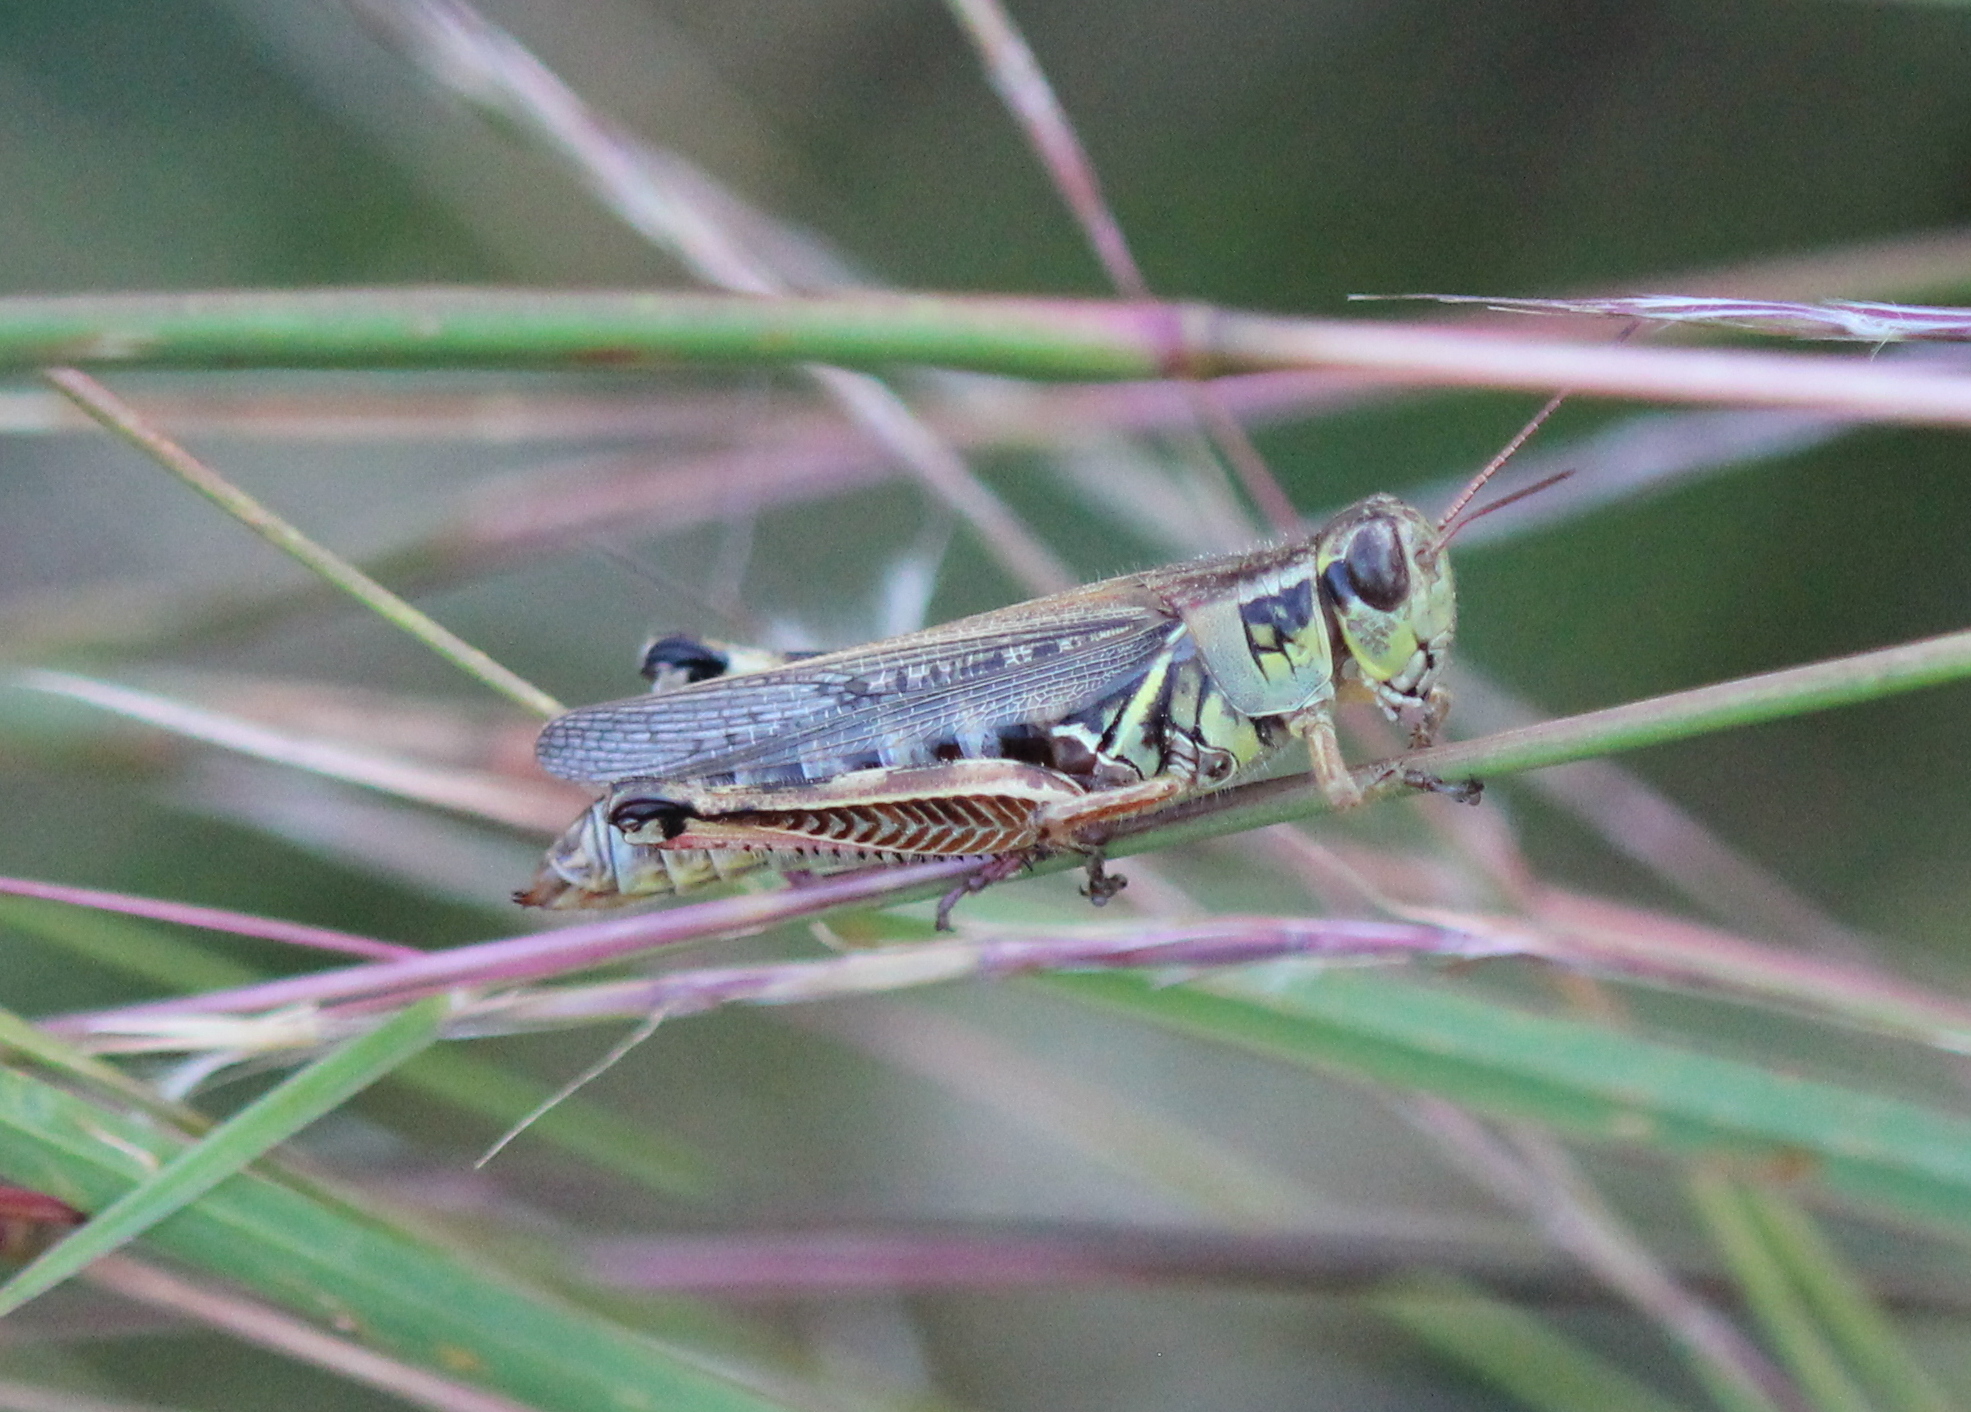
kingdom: Animalia
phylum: Arthropoda
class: Insecta
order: Orthoptera
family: Acrididae
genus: Melanoplus
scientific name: Melanoplus femurrubrum
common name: Red-legged grasshopper
